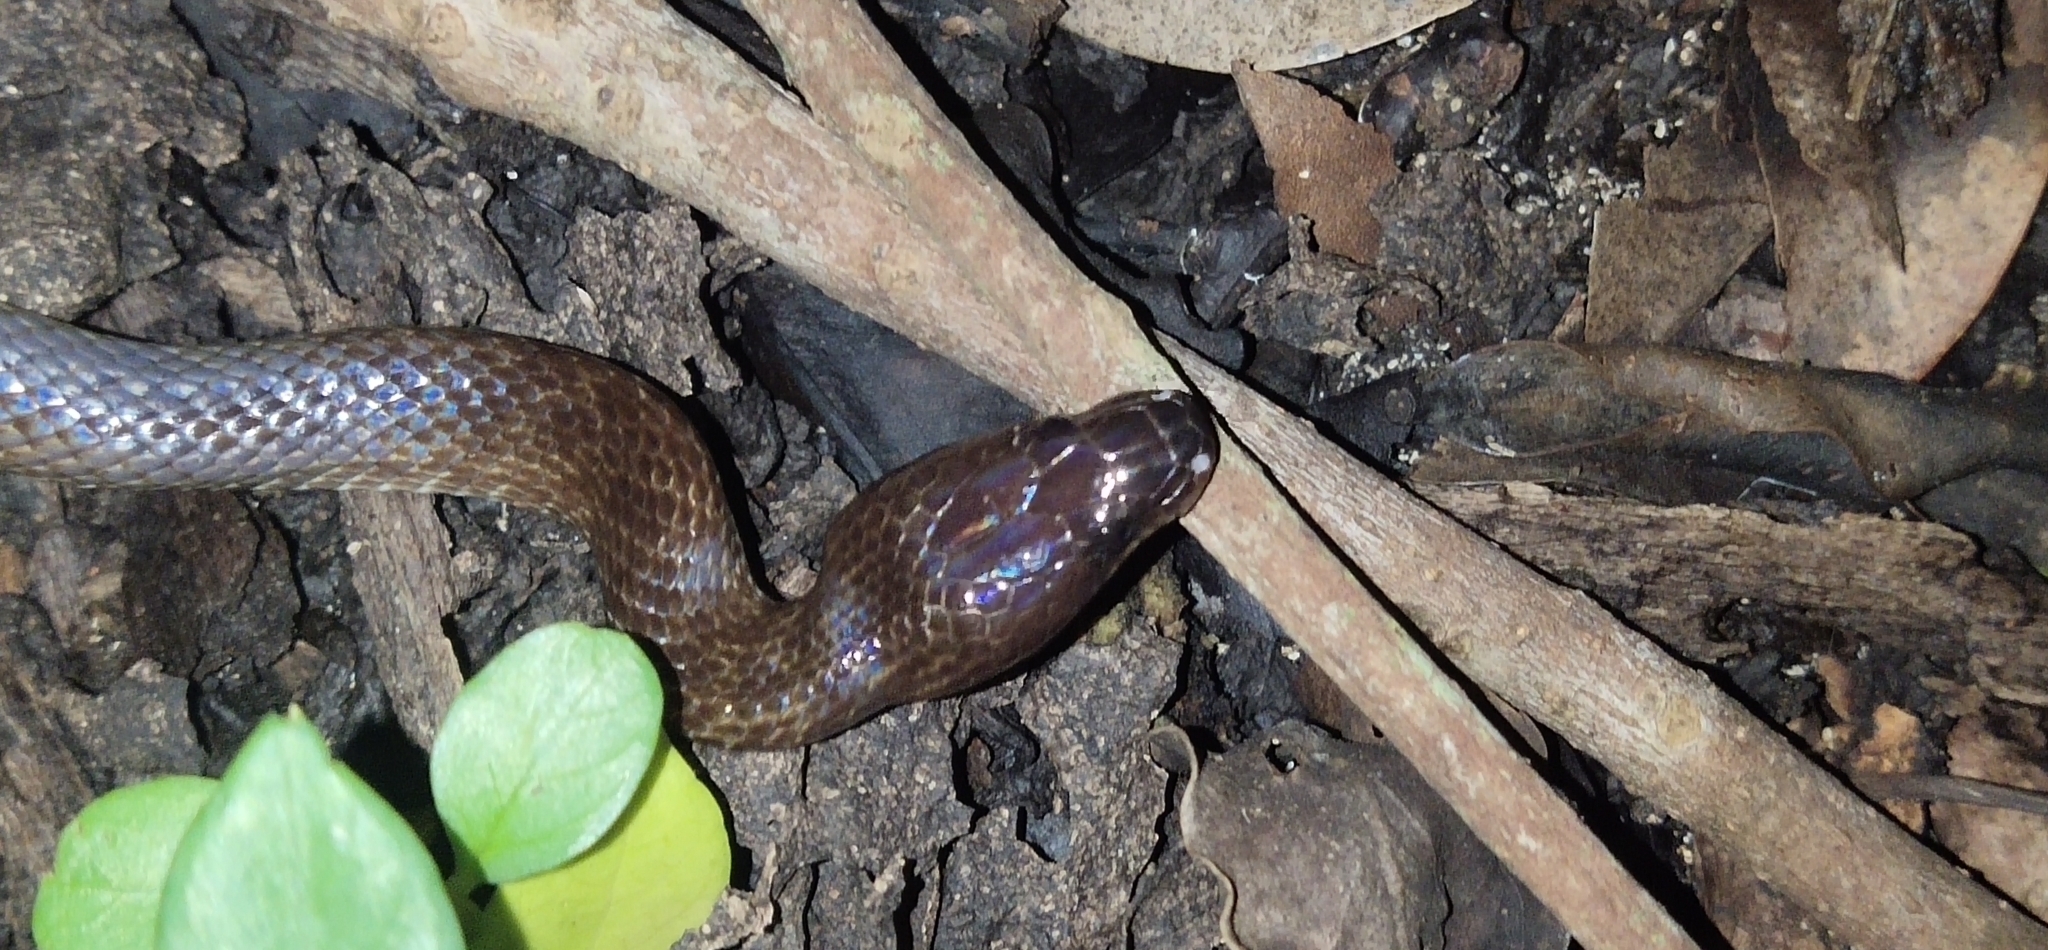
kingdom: Animalia
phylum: Chordata
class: Squamata
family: Colubridae
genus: Lycodon
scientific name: Lycodon hypsirhinoides
